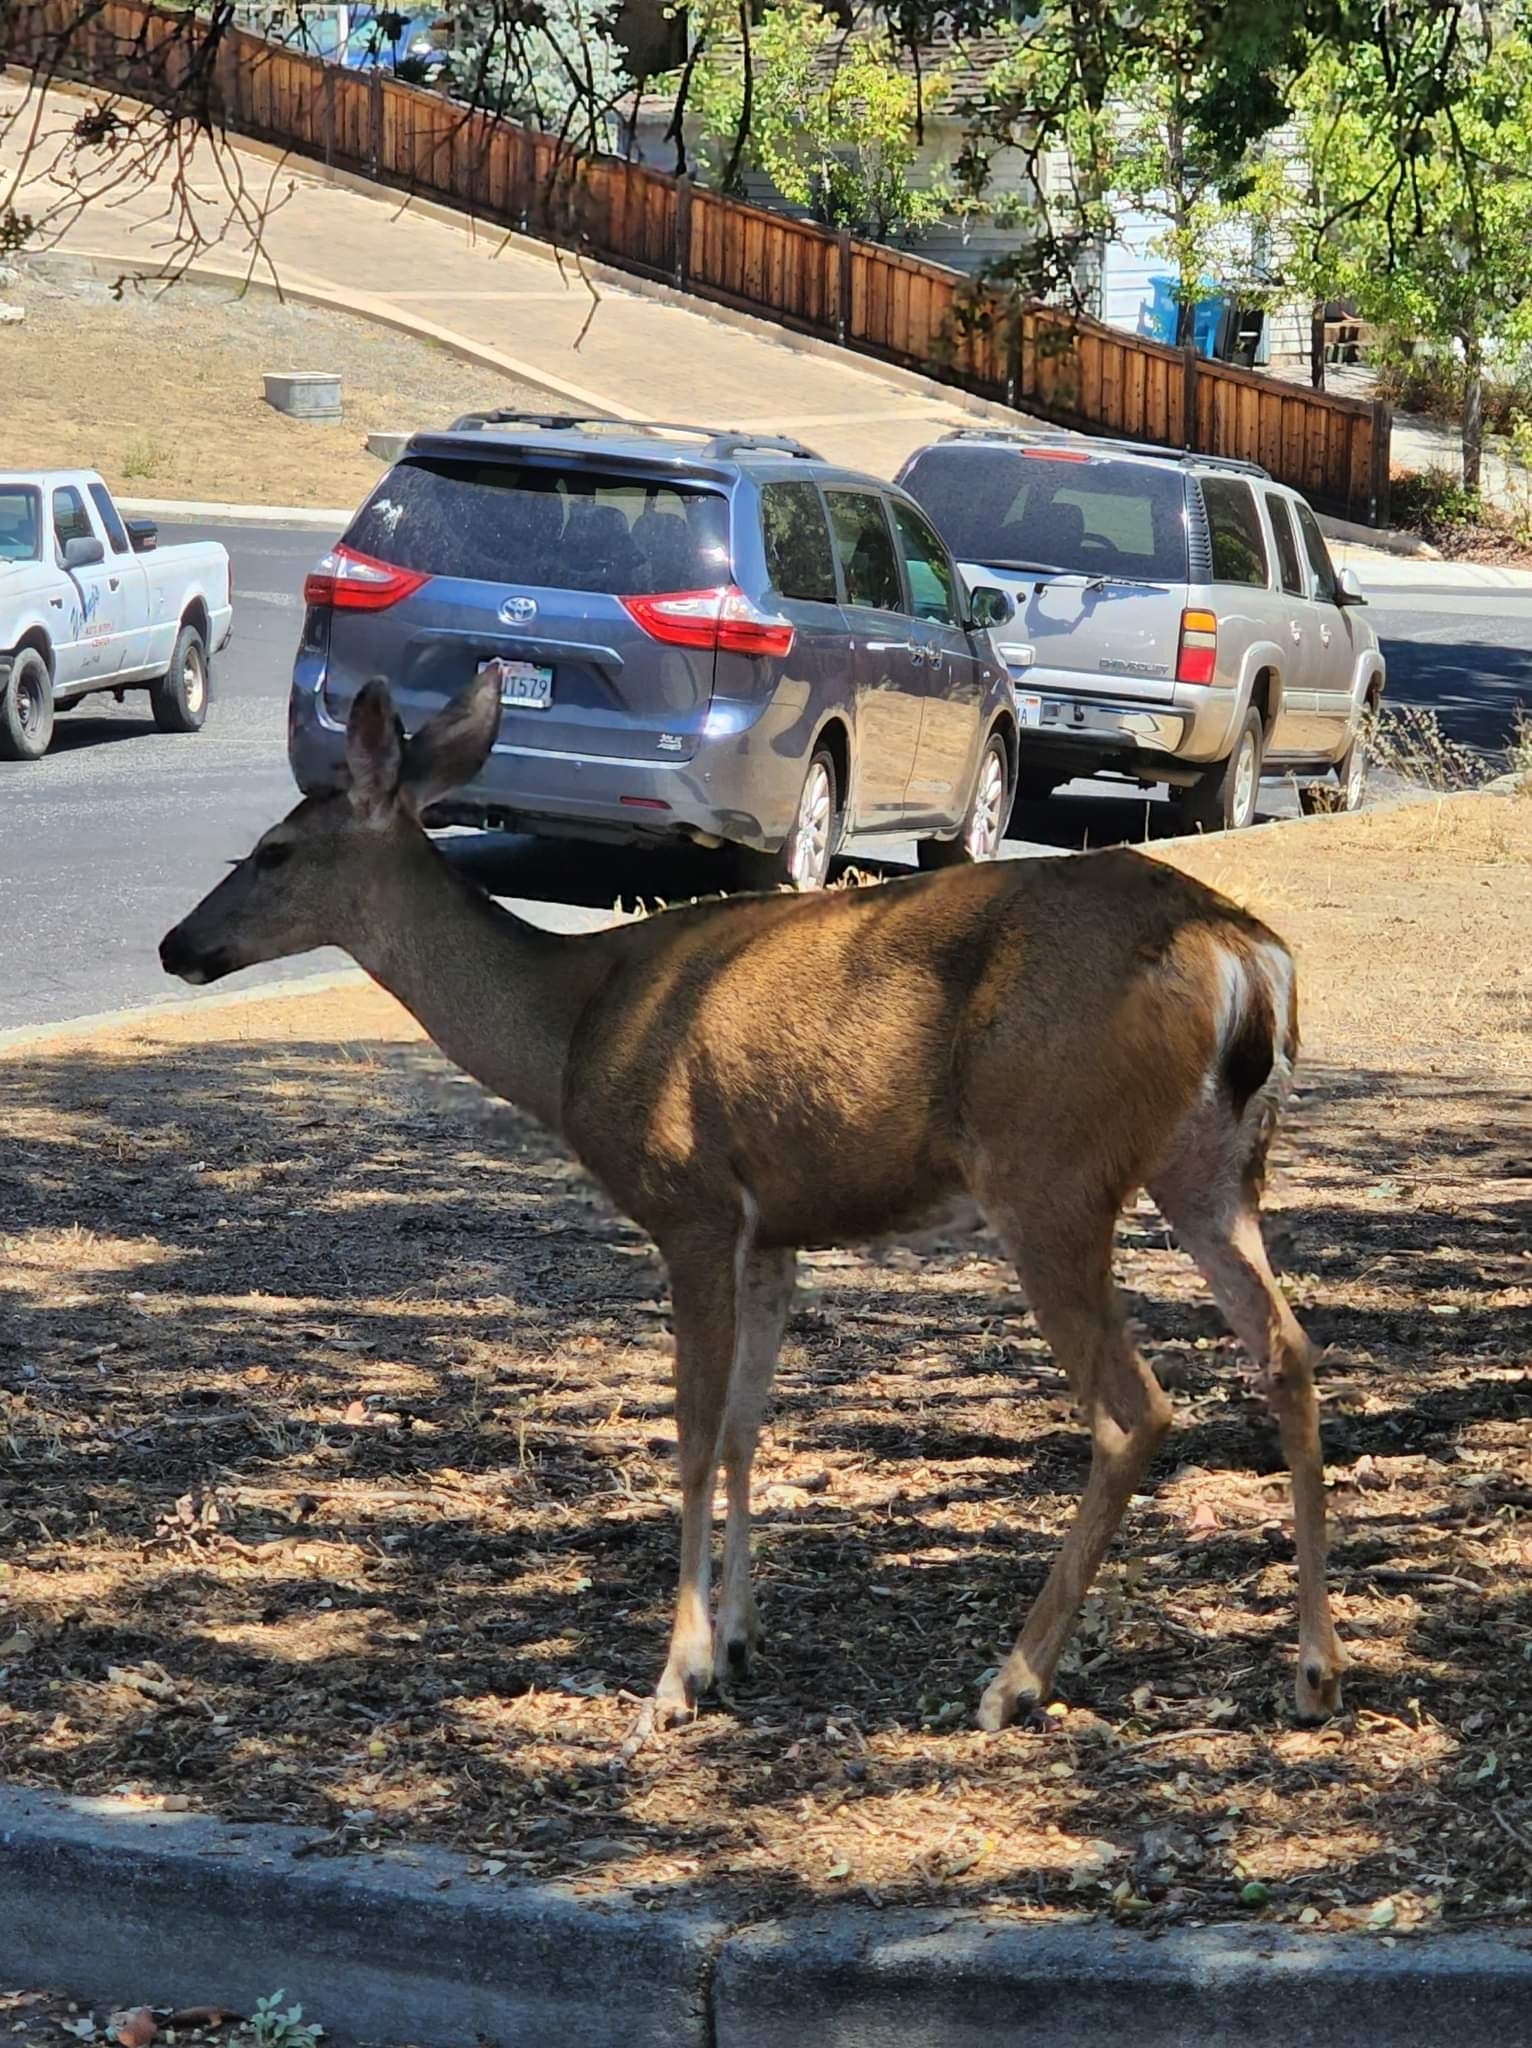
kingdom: Animalia
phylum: Chordata
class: Mammalia
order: Artiodactyla
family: Cervidae
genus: Odocoileus
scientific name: Odocoileus hemionus
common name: Mule deer
